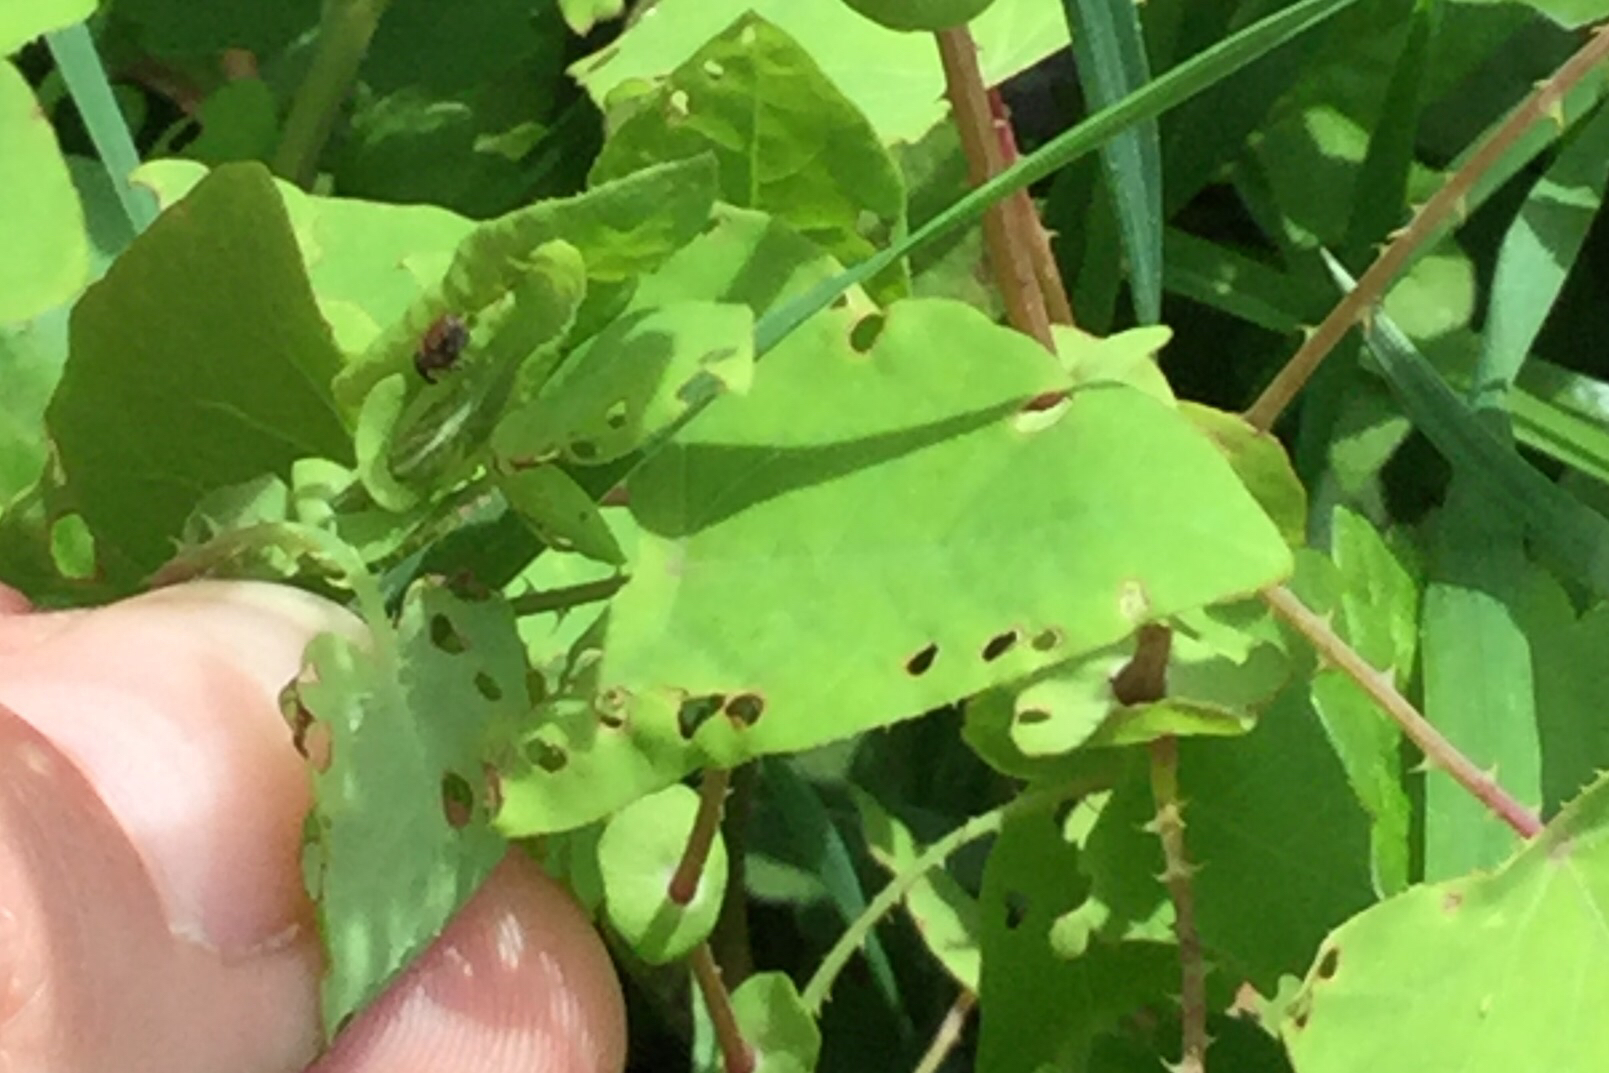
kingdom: Animalia
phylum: Arthropoda
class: Insecta
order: Coleoptera
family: Curculionidae
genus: Rhinoncomimus
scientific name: Rhinoncomimus latipes
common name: Chinese weevil
